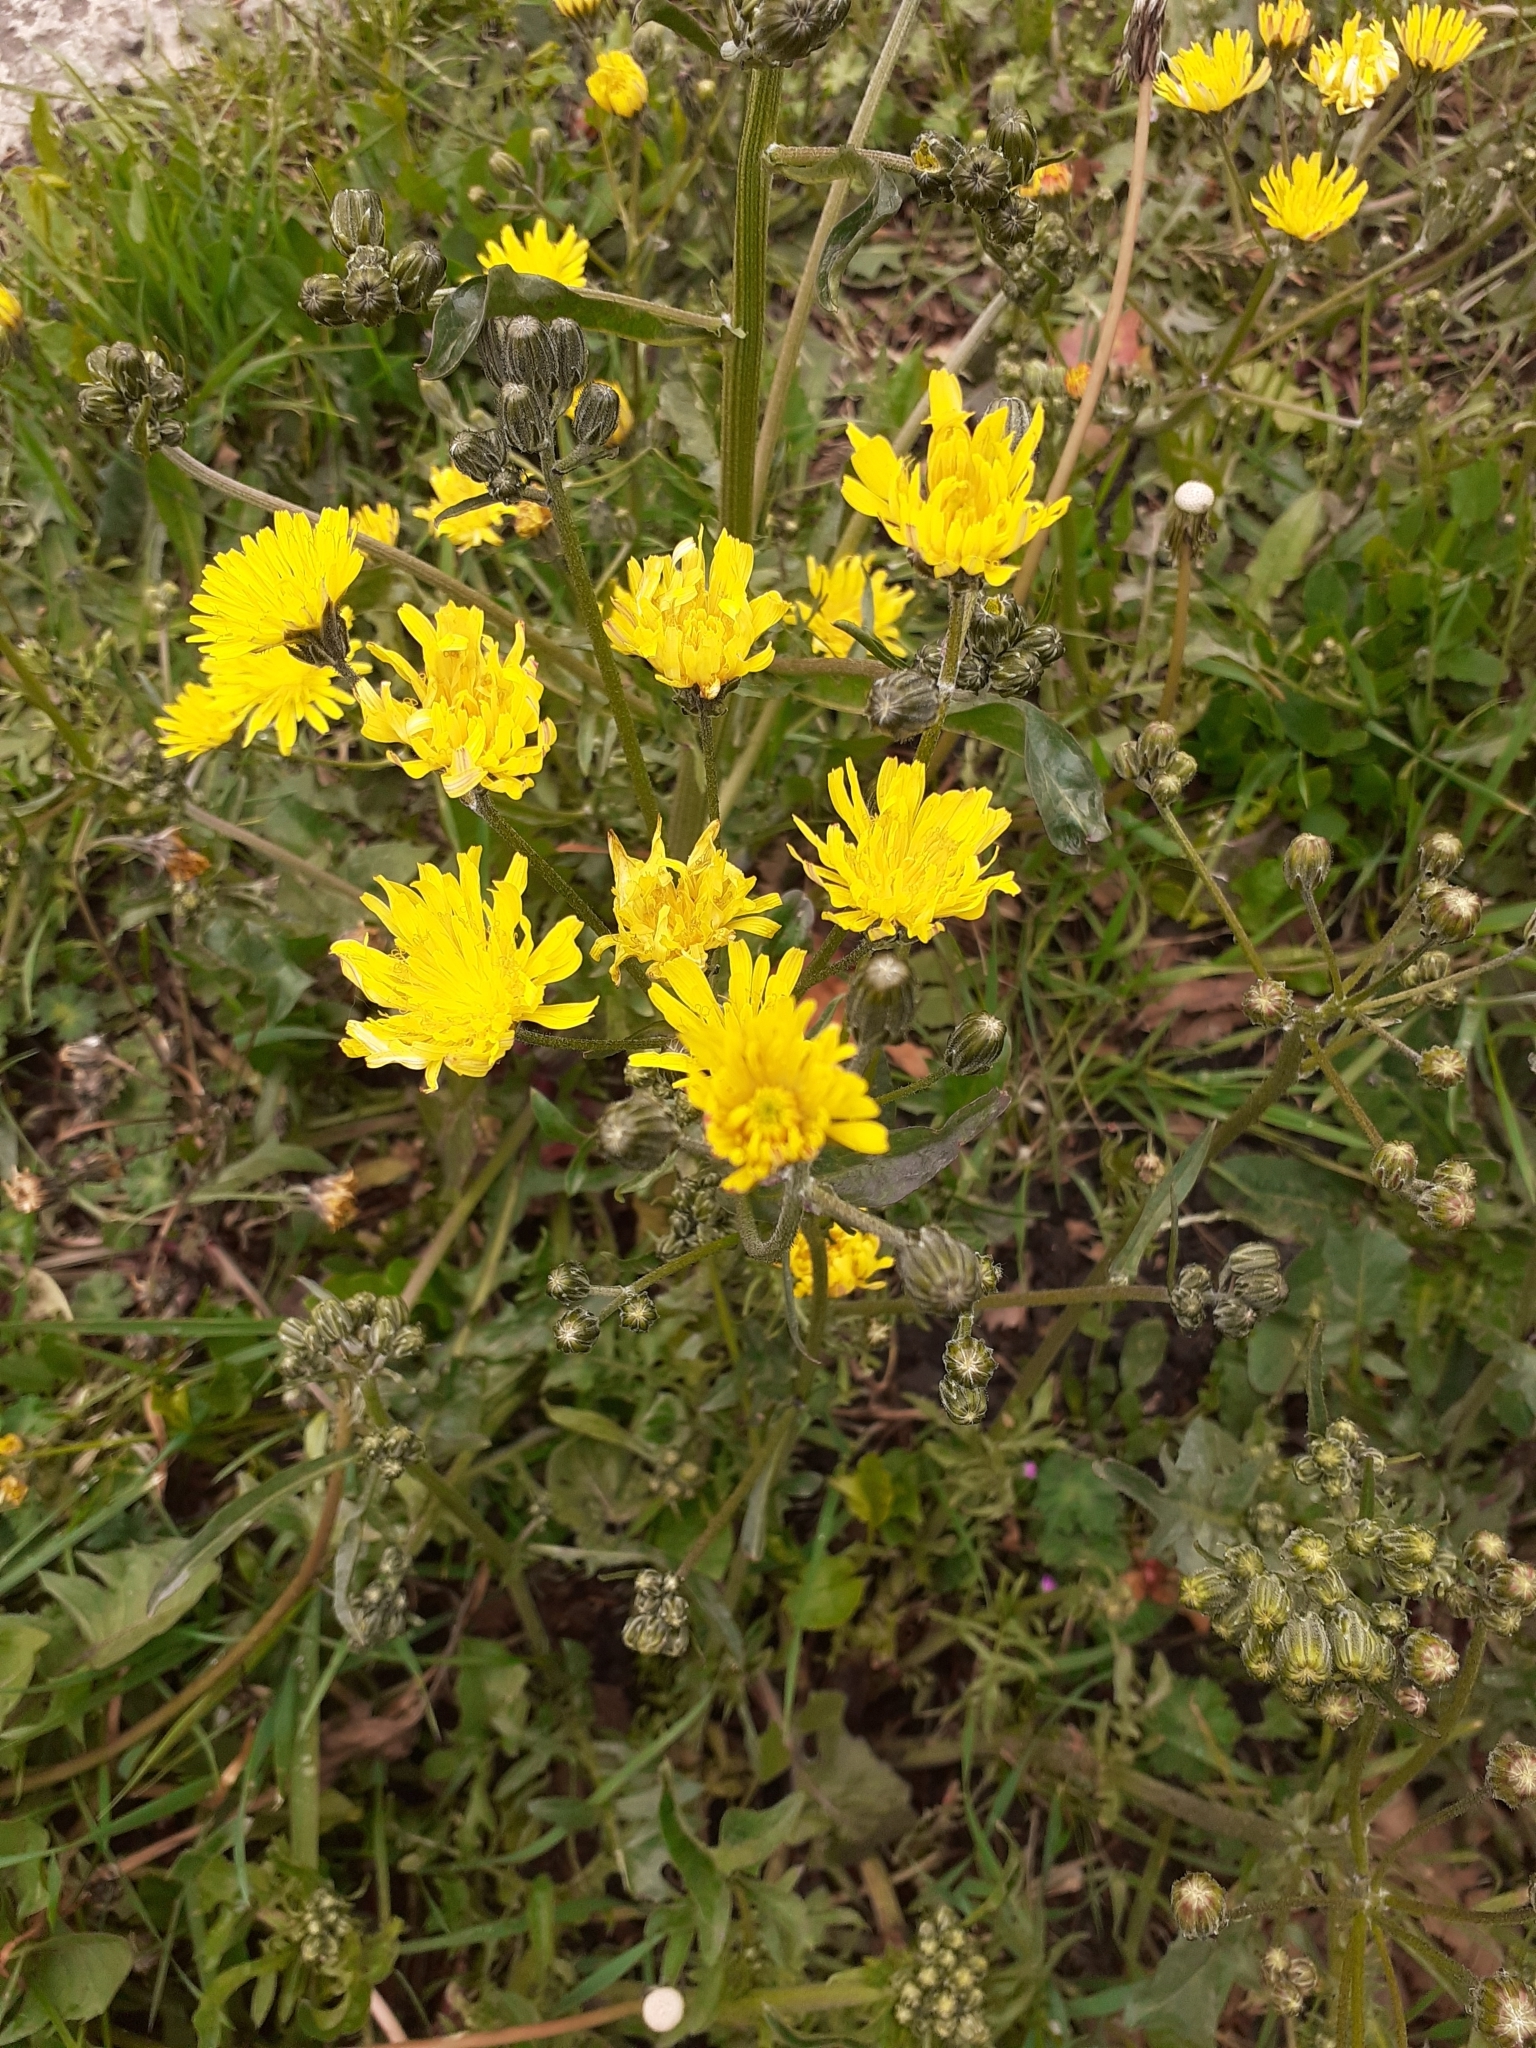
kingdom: Plantae
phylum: Tracheophyta
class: Magnoliopsida
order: Asterales
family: Asteraceae
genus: Crepis
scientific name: Crepis vesicaria
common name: Beaked hawksbeard
